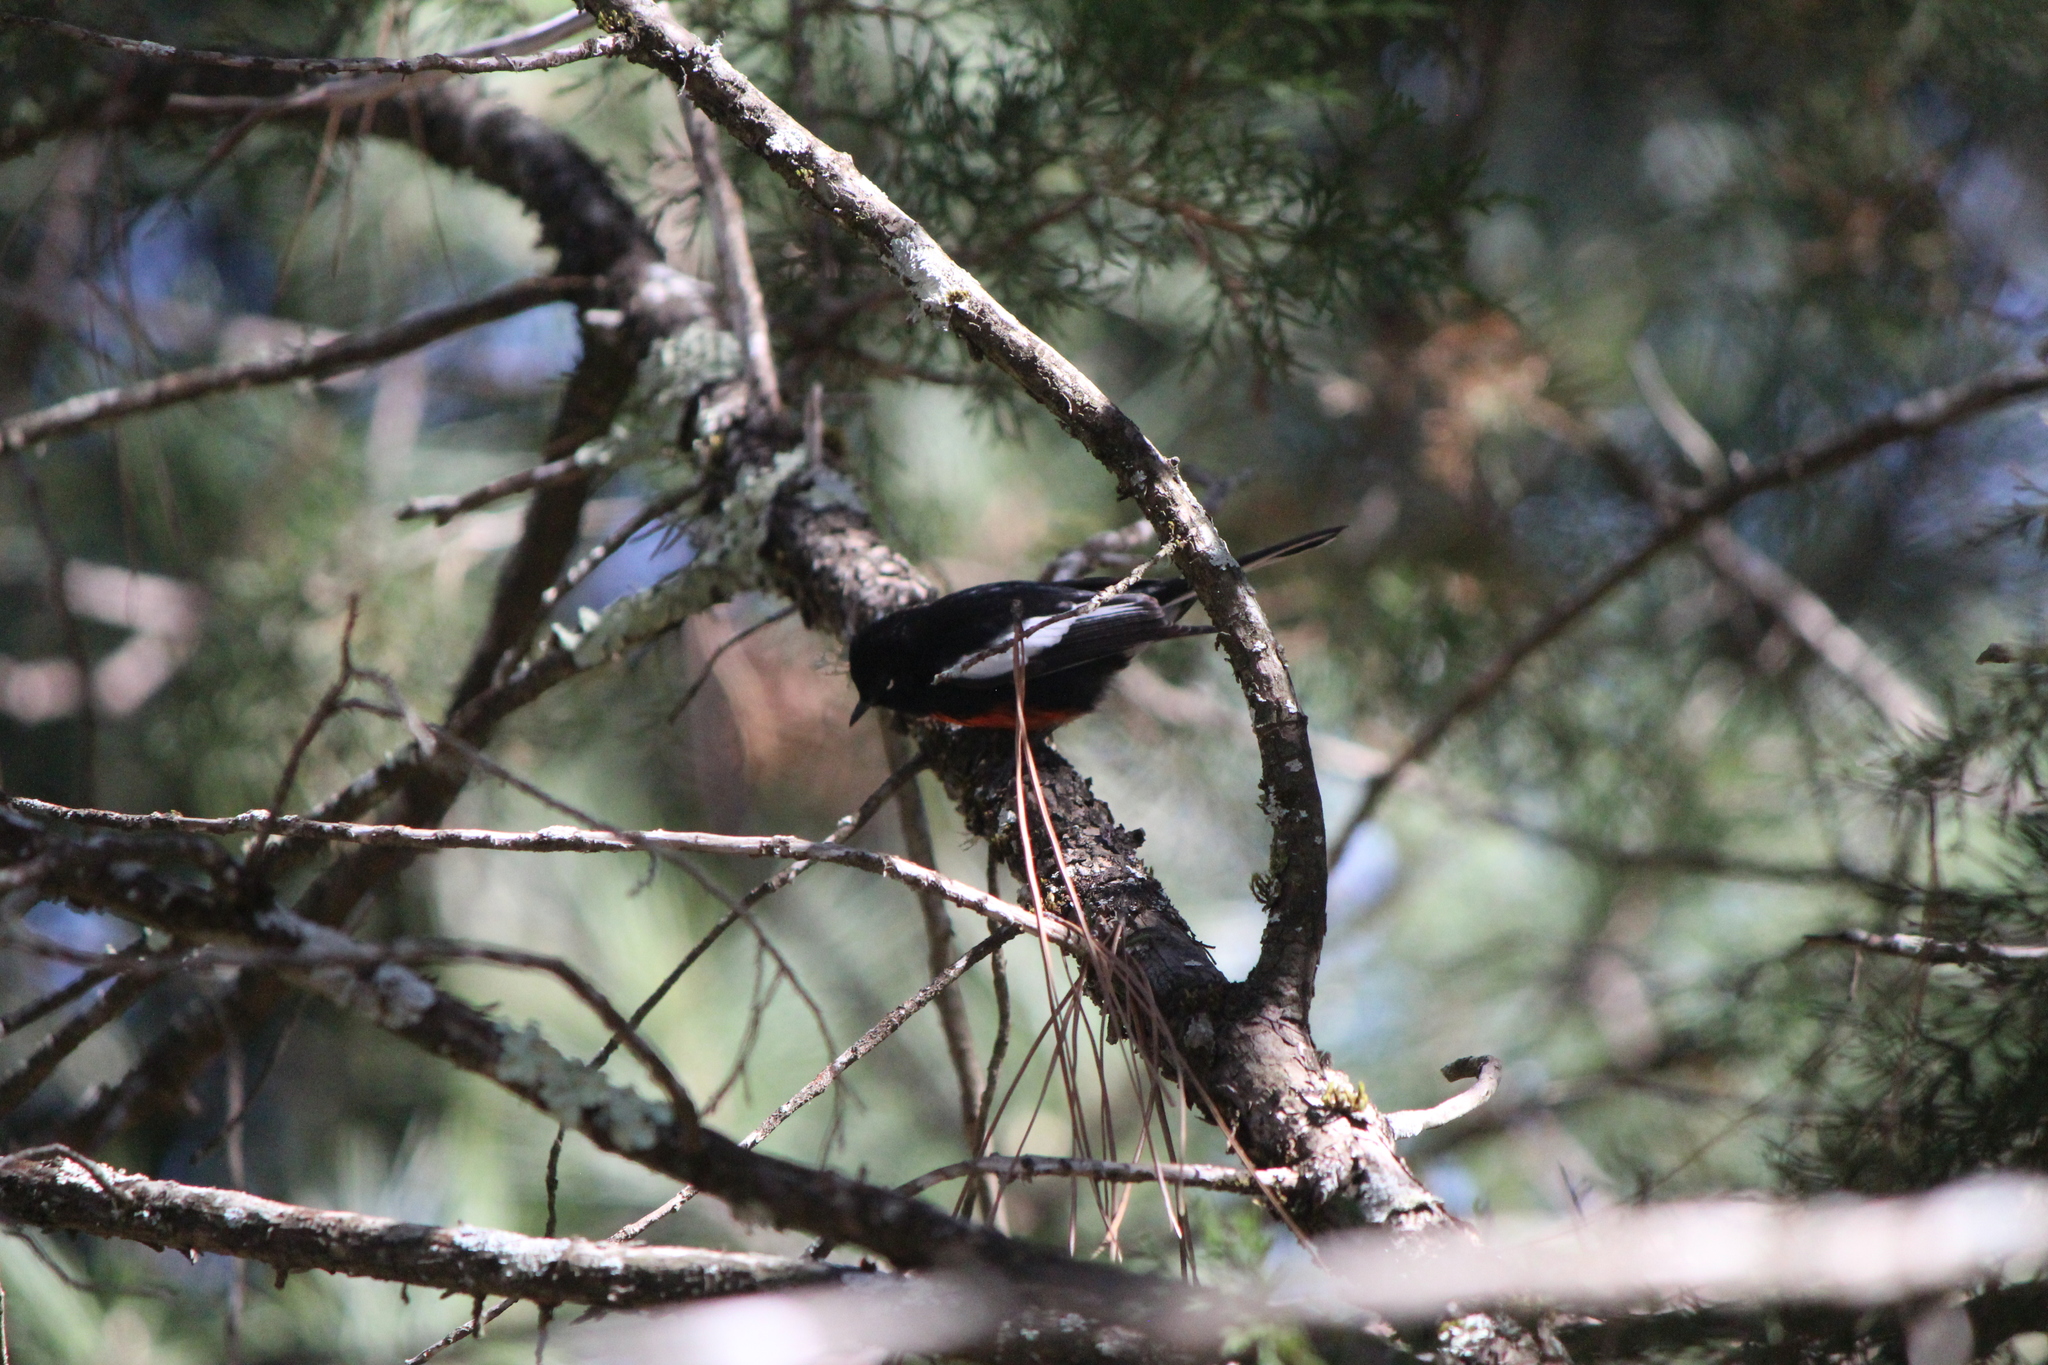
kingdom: Animalia
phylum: Chordata
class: Aves
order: Passeriformes
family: Parulidae
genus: Myioborus
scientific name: Myioborus pictus
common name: Painted whitestart
